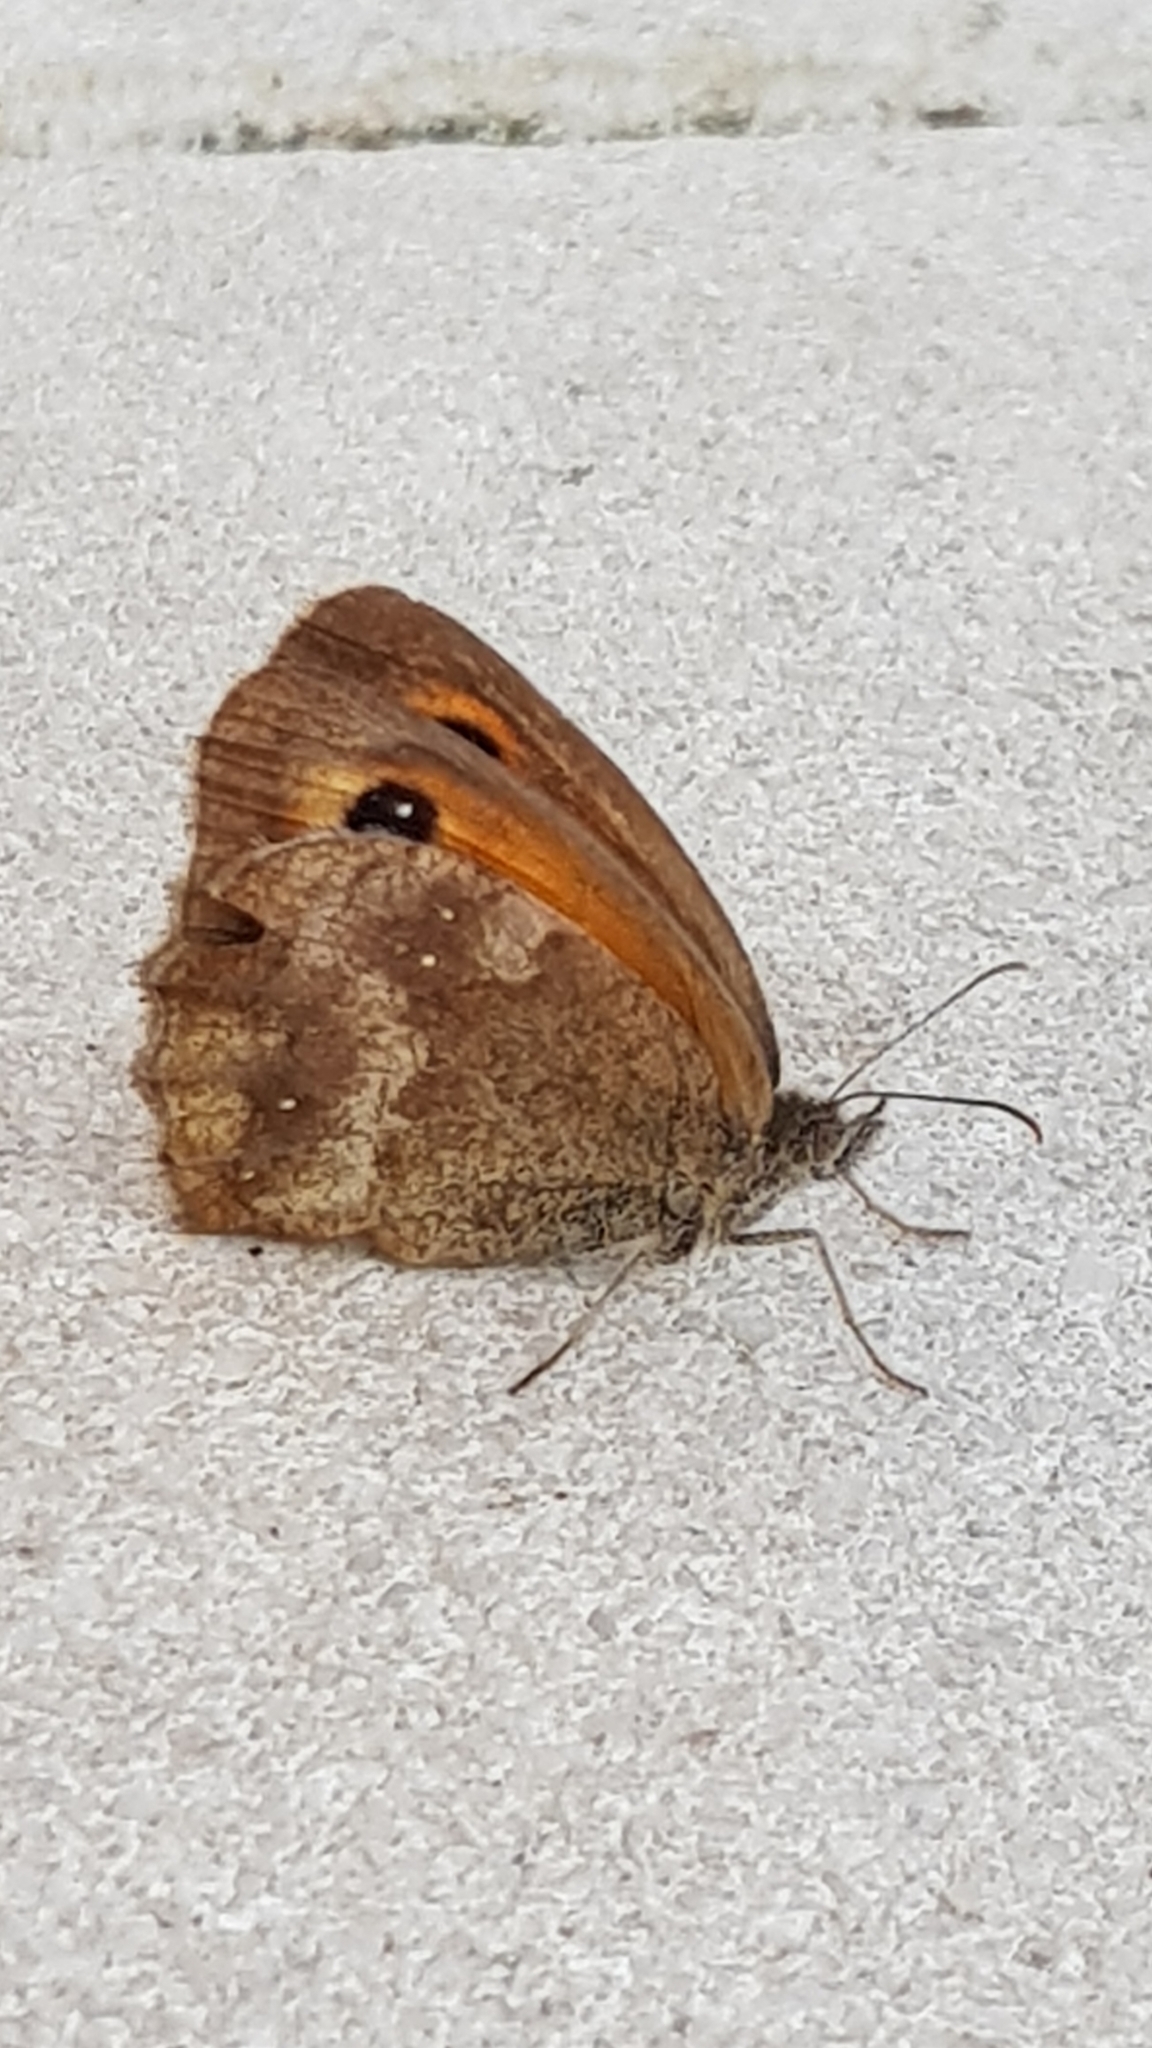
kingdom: Animalia
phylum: Arthropoda
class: Insecta
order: Lepidoptera
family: Nymphalidae
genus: Pyronia
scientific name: Pyronia tithonus
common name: Gatekeeper
